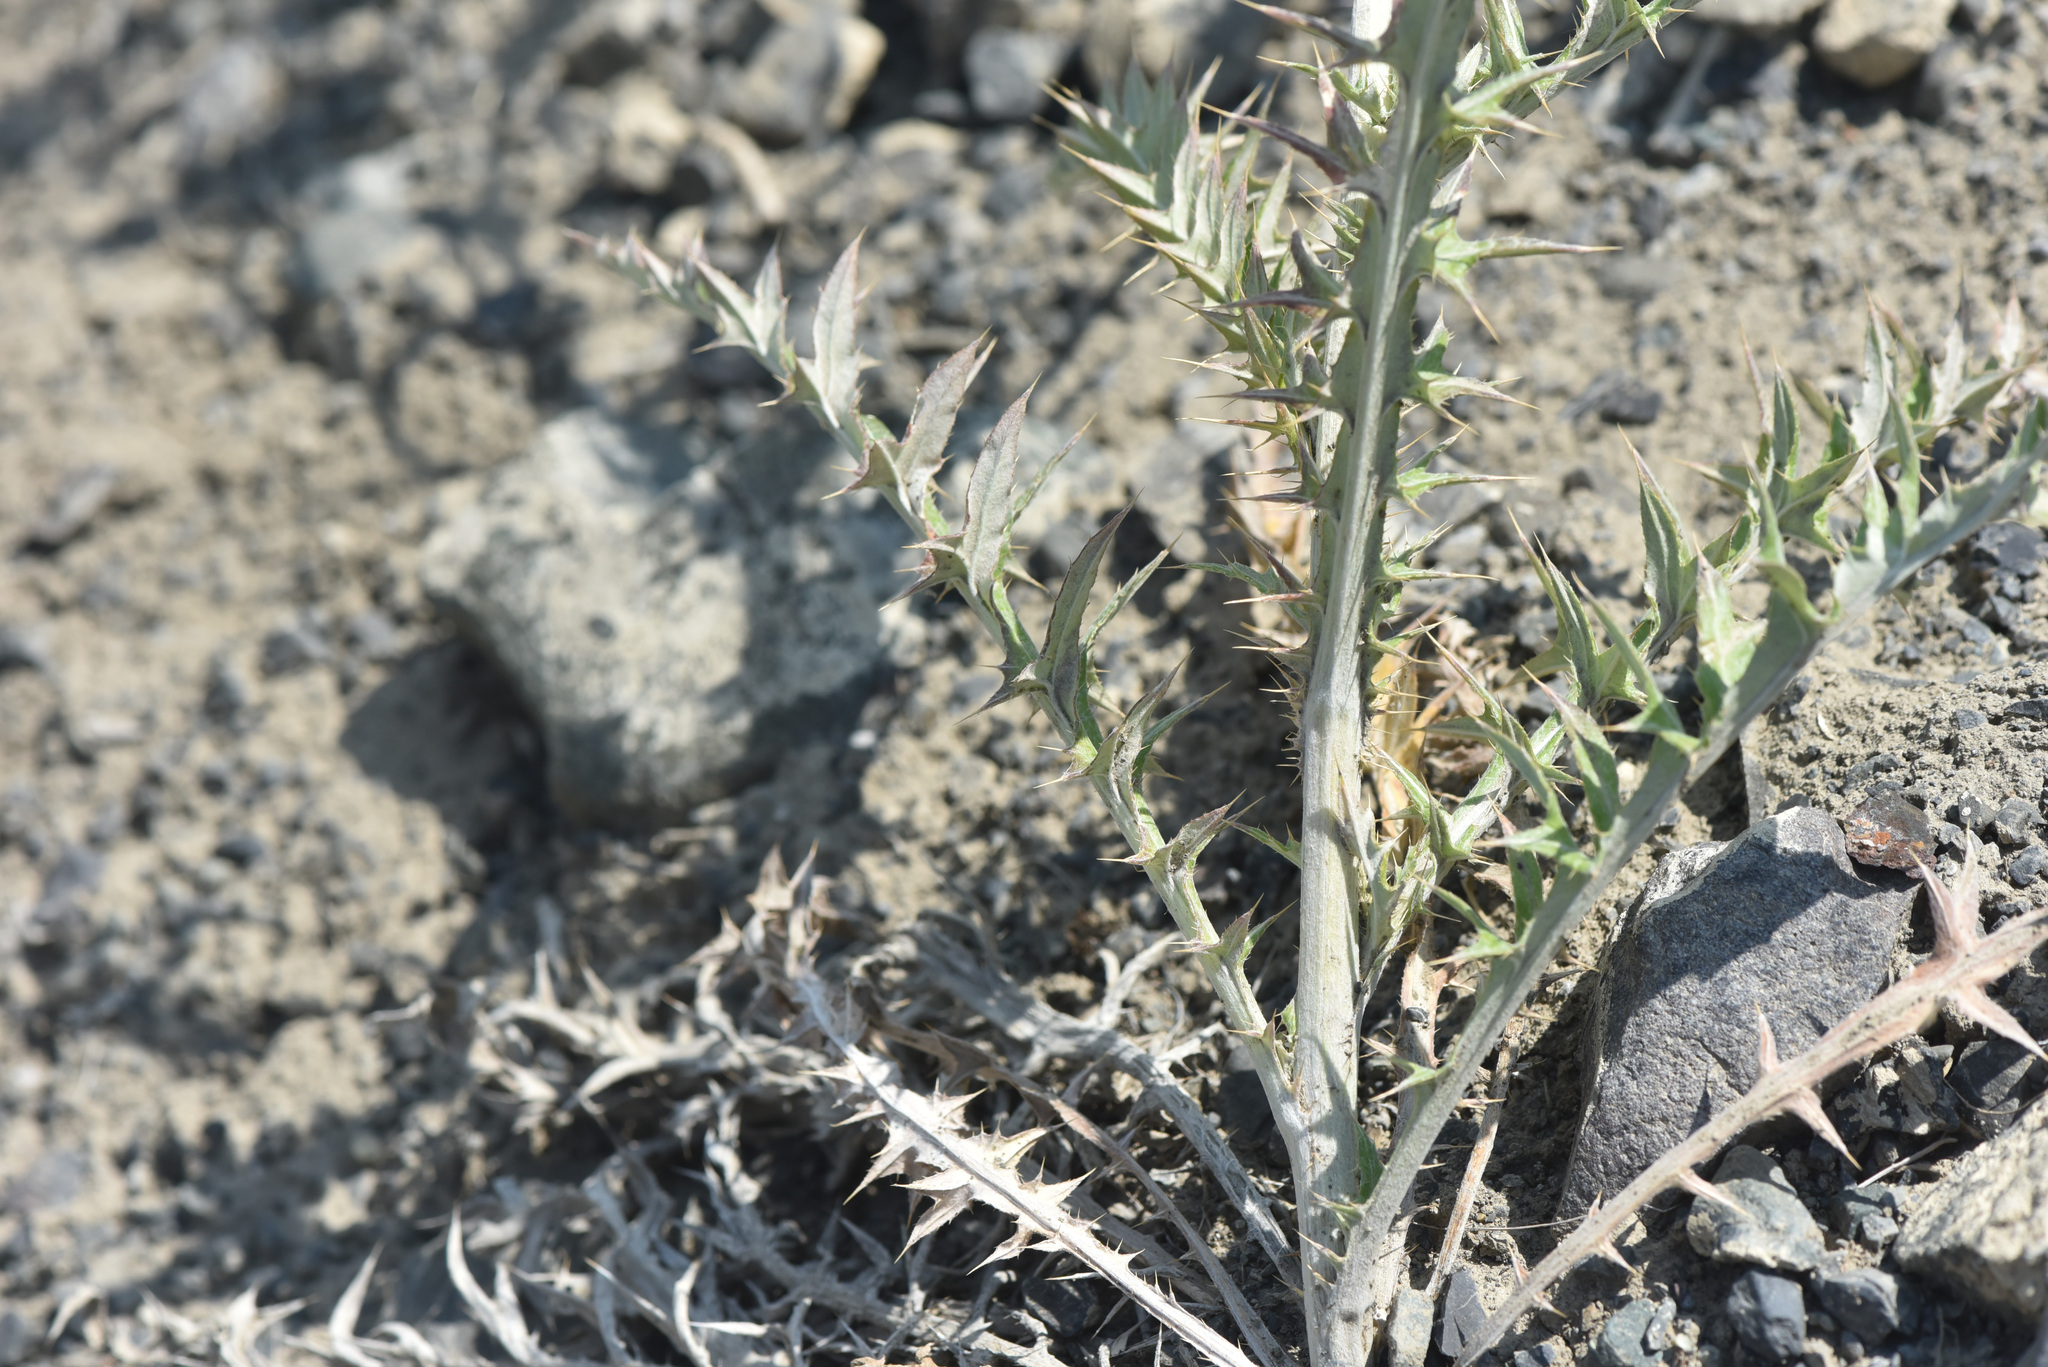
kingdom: Plantae
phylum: Tracheophyta
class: Magnoliopsida
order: Asterales
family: Asteraceae
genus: Cirsium
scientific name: Cirsium undulatum
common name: Pasture thistle
